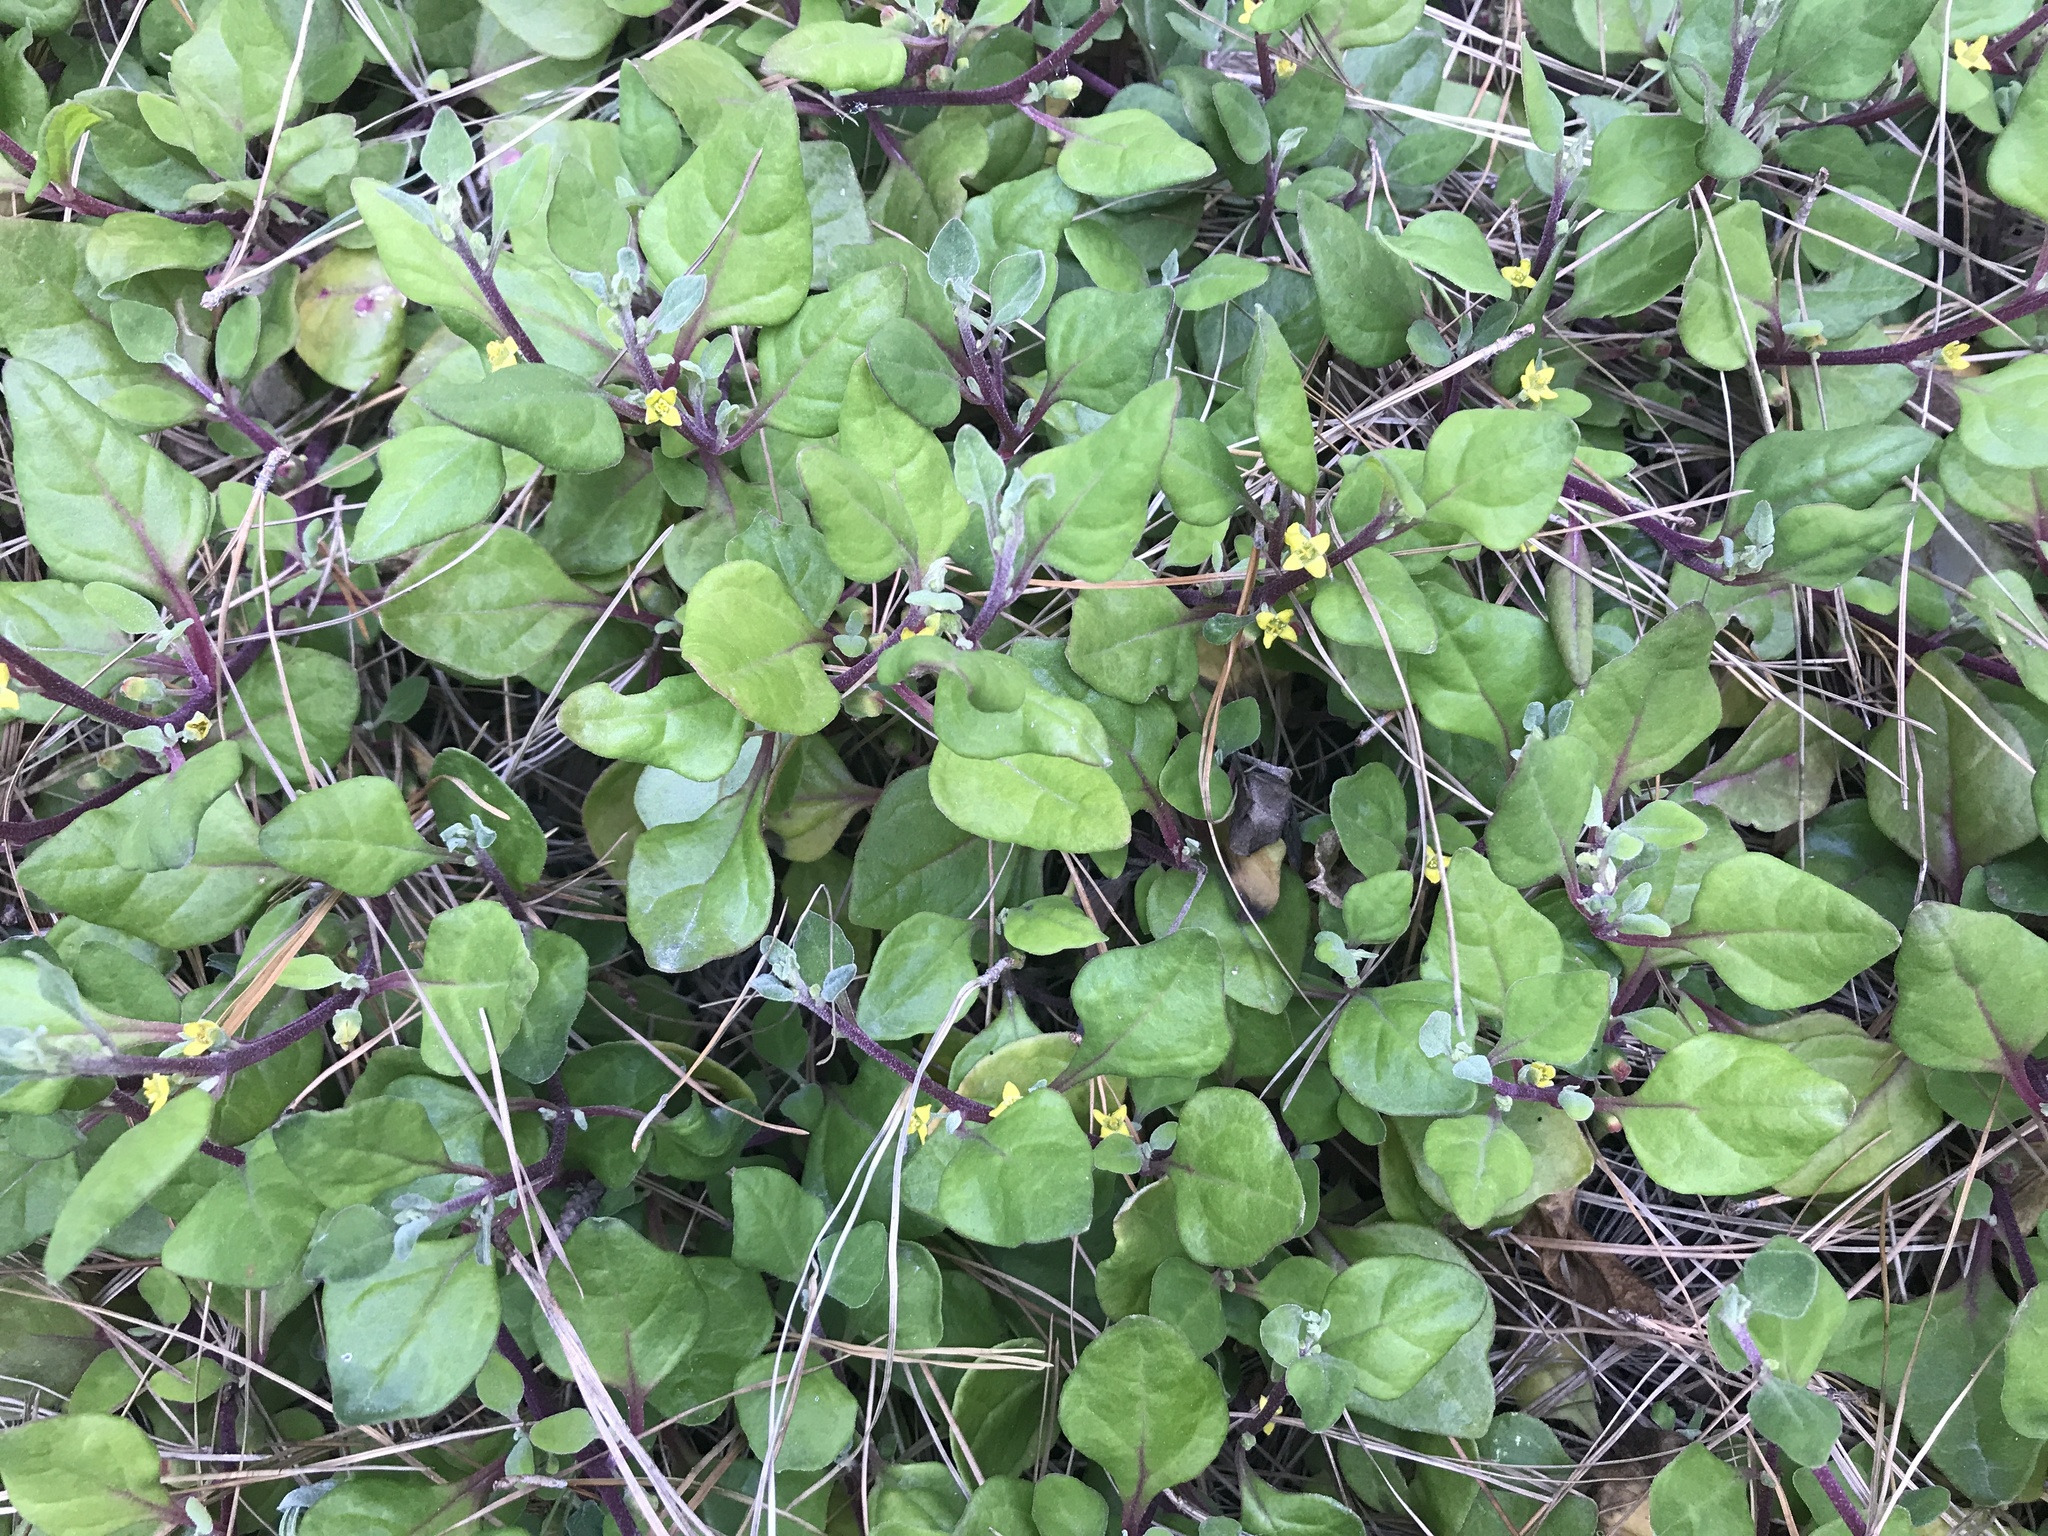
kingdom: Plantae
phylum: Tracheophyta
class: Magnoliopsida
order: Caryophyllales
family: Aizoaceae
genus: Tetragonia
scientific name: Tetragonia implexicoma
